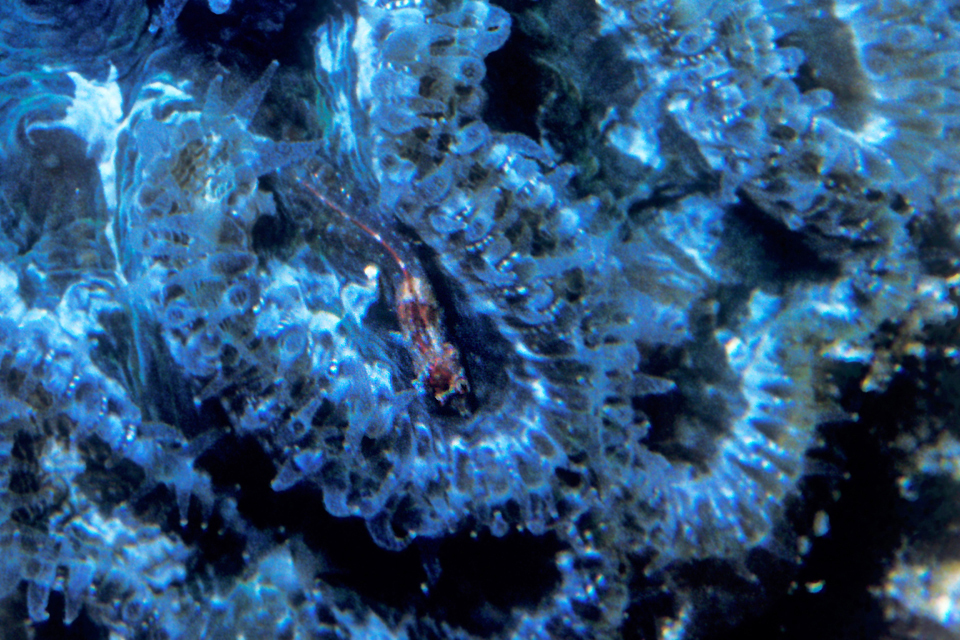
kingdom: Animalia
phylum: Chordata
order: Perciformes
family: Chaenopsidae
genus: Emblemariopsis
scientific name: Emblemariopsis bahamensis
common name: Blackhead blenny
